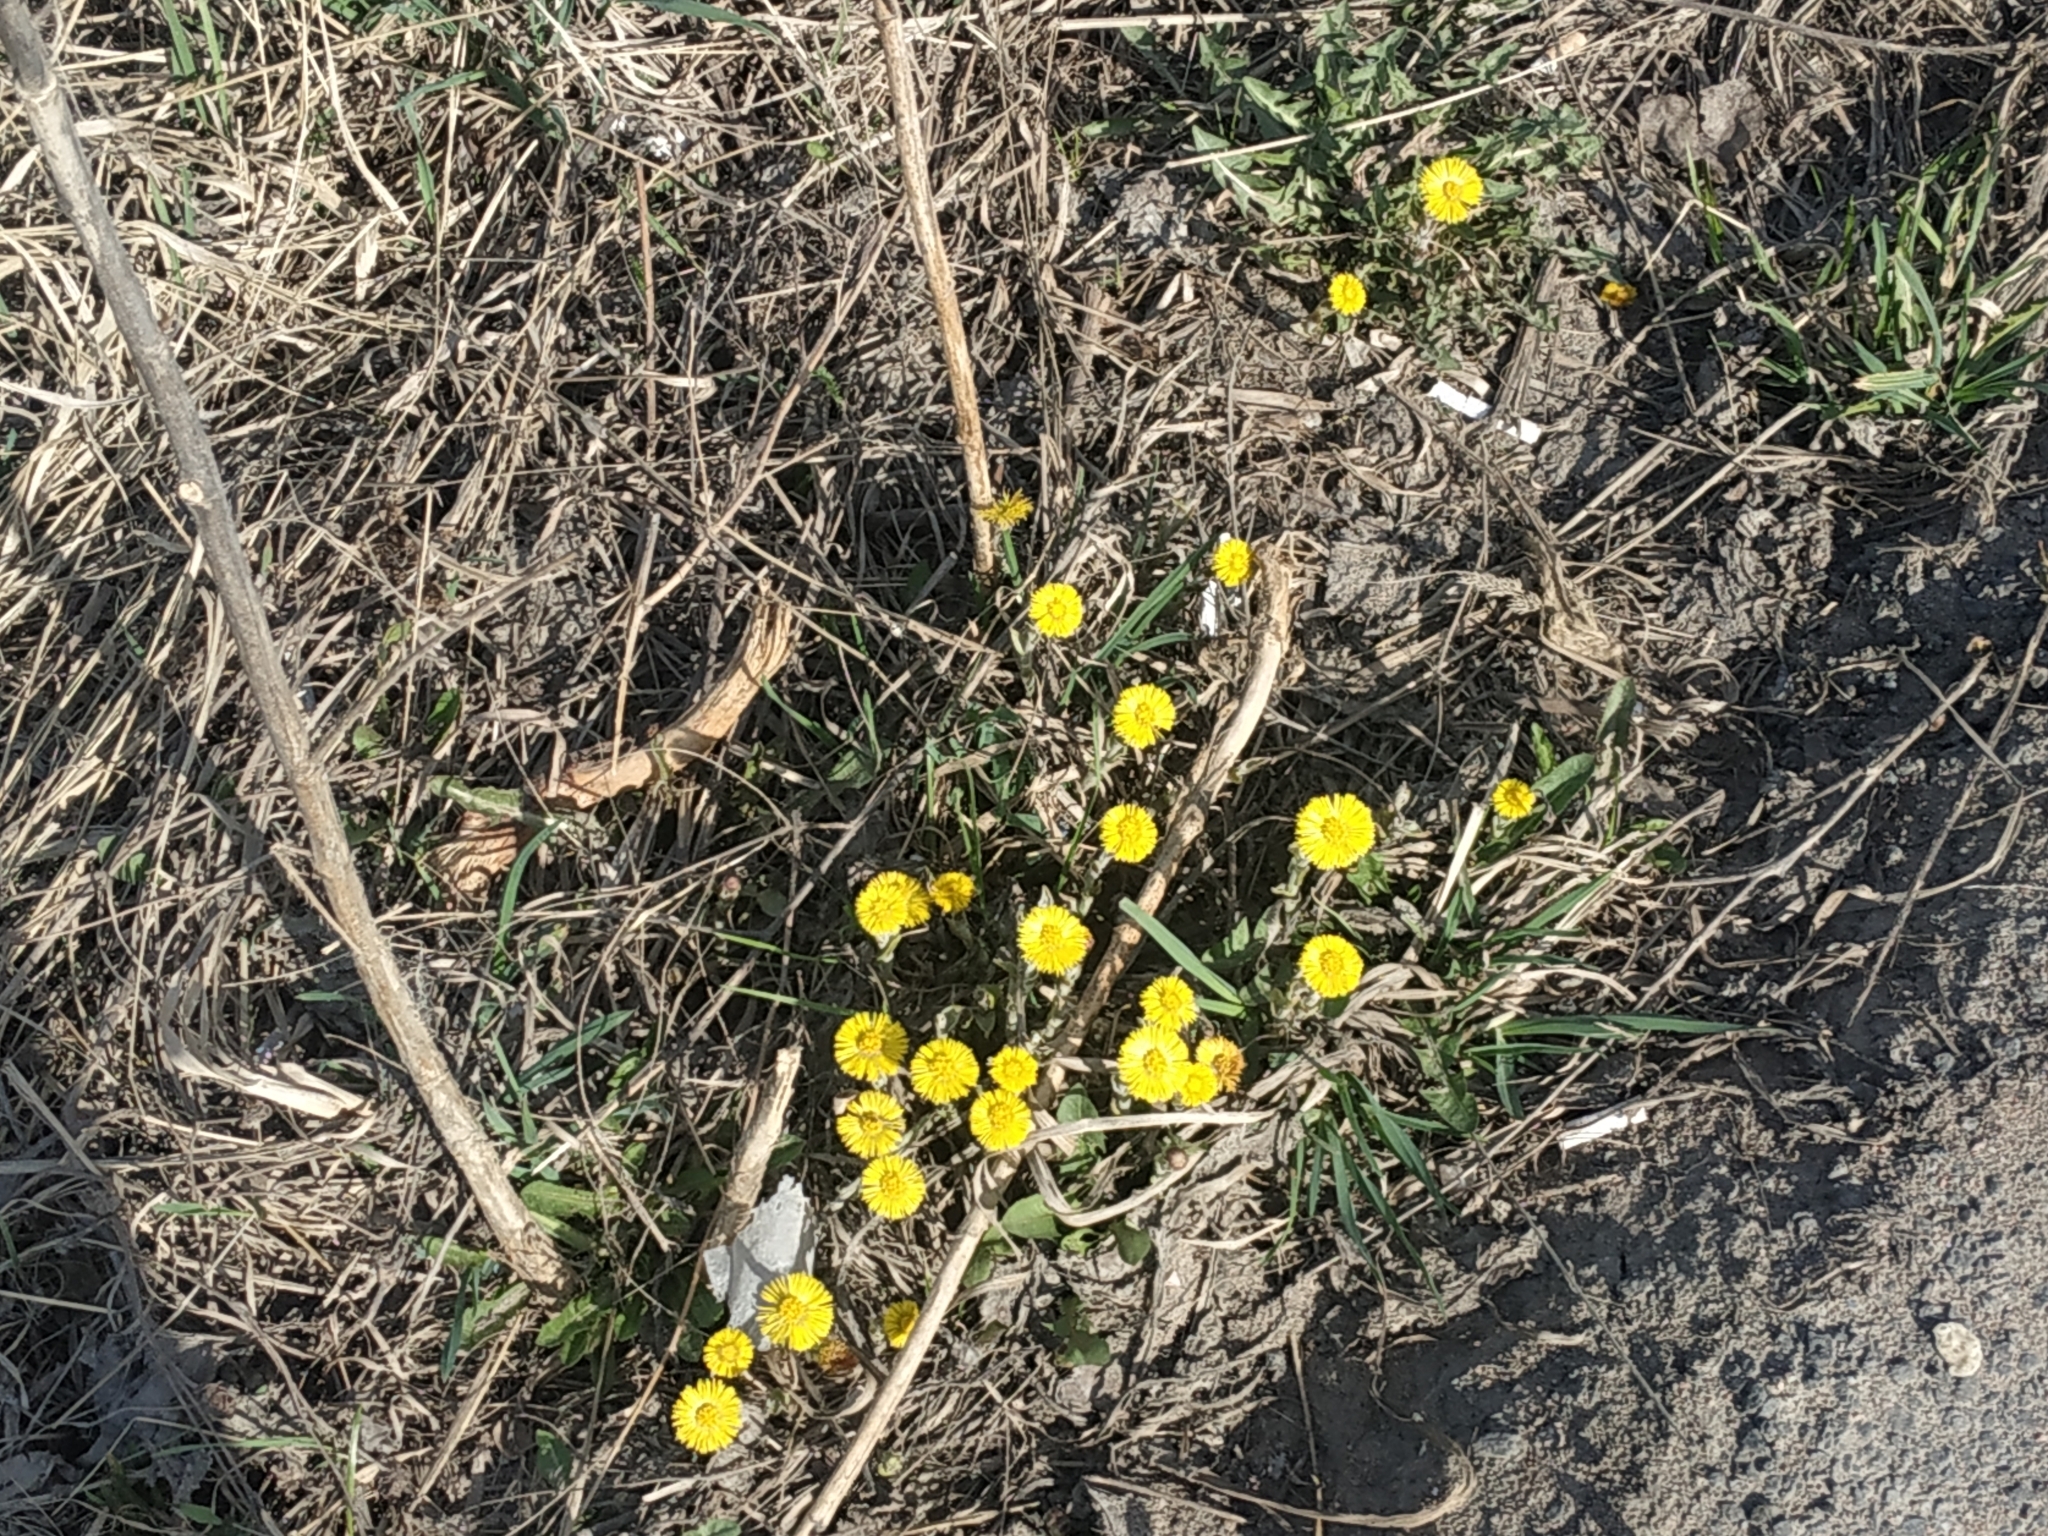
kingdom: Plantae
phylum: Tracheophyta
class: Magnoliopsida
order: Asterales
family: Asteraceae
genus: Tussilago
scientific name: Tussilago farfara
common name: Coltsfoot
